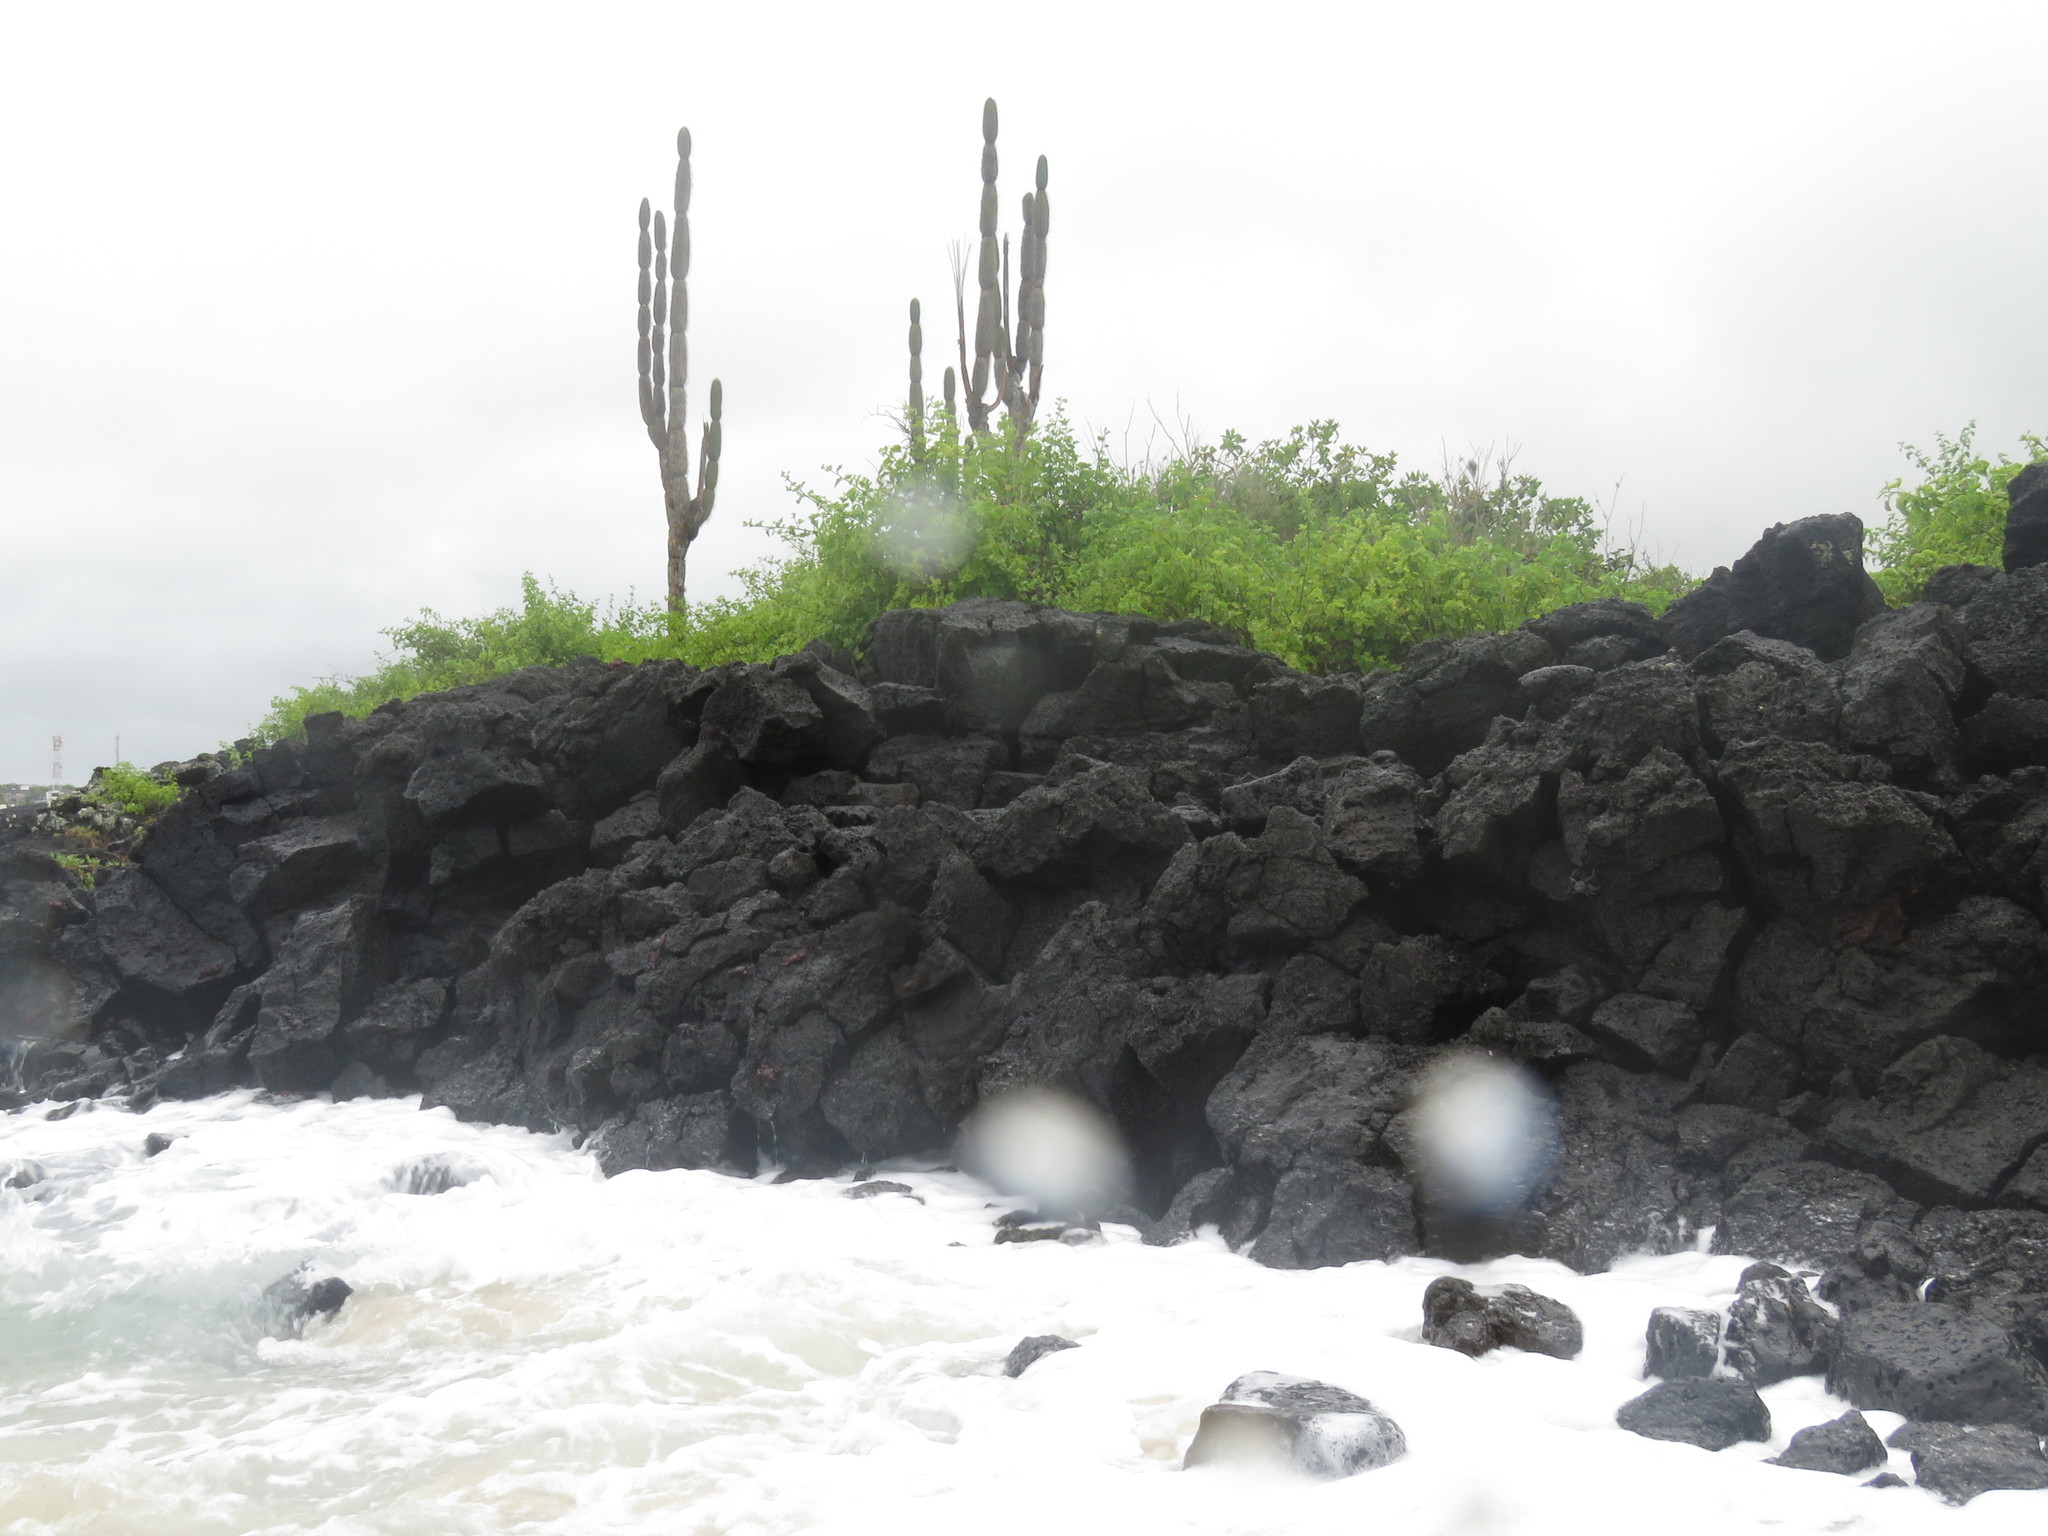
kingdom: Plantae
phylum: Tracheophyta
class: Magnoliopsida
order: Caryophyllales
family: Cactaceae
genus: Jasminocereus
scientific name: Jasminocereus thouarsii
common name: Candelabra cactus
